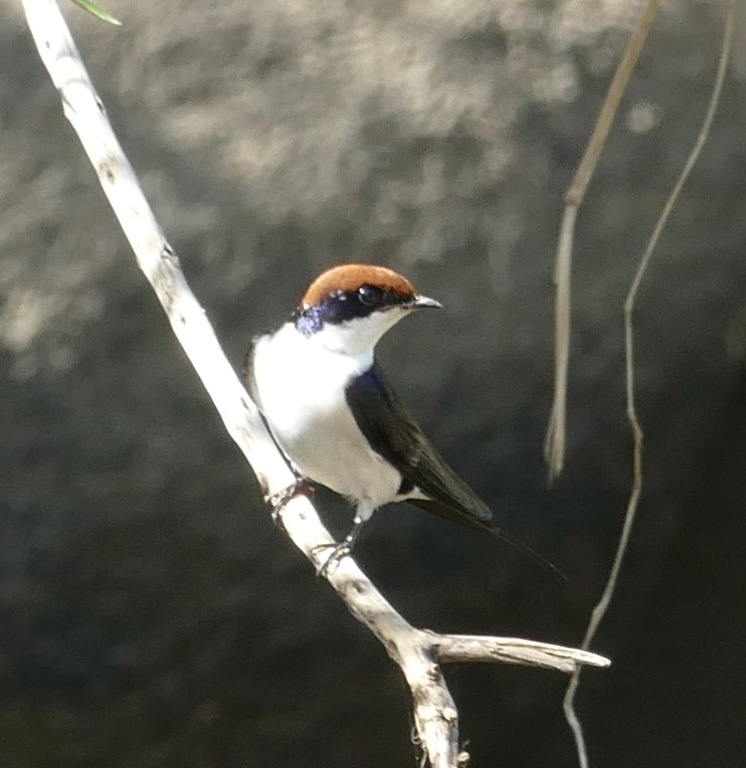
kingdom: Animalia
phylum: Chordata
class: Aves
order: Passeriformes
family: Hirundinidae
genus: Hirundo
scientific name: Hirundo smithii
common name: Wire-tailed swallow
